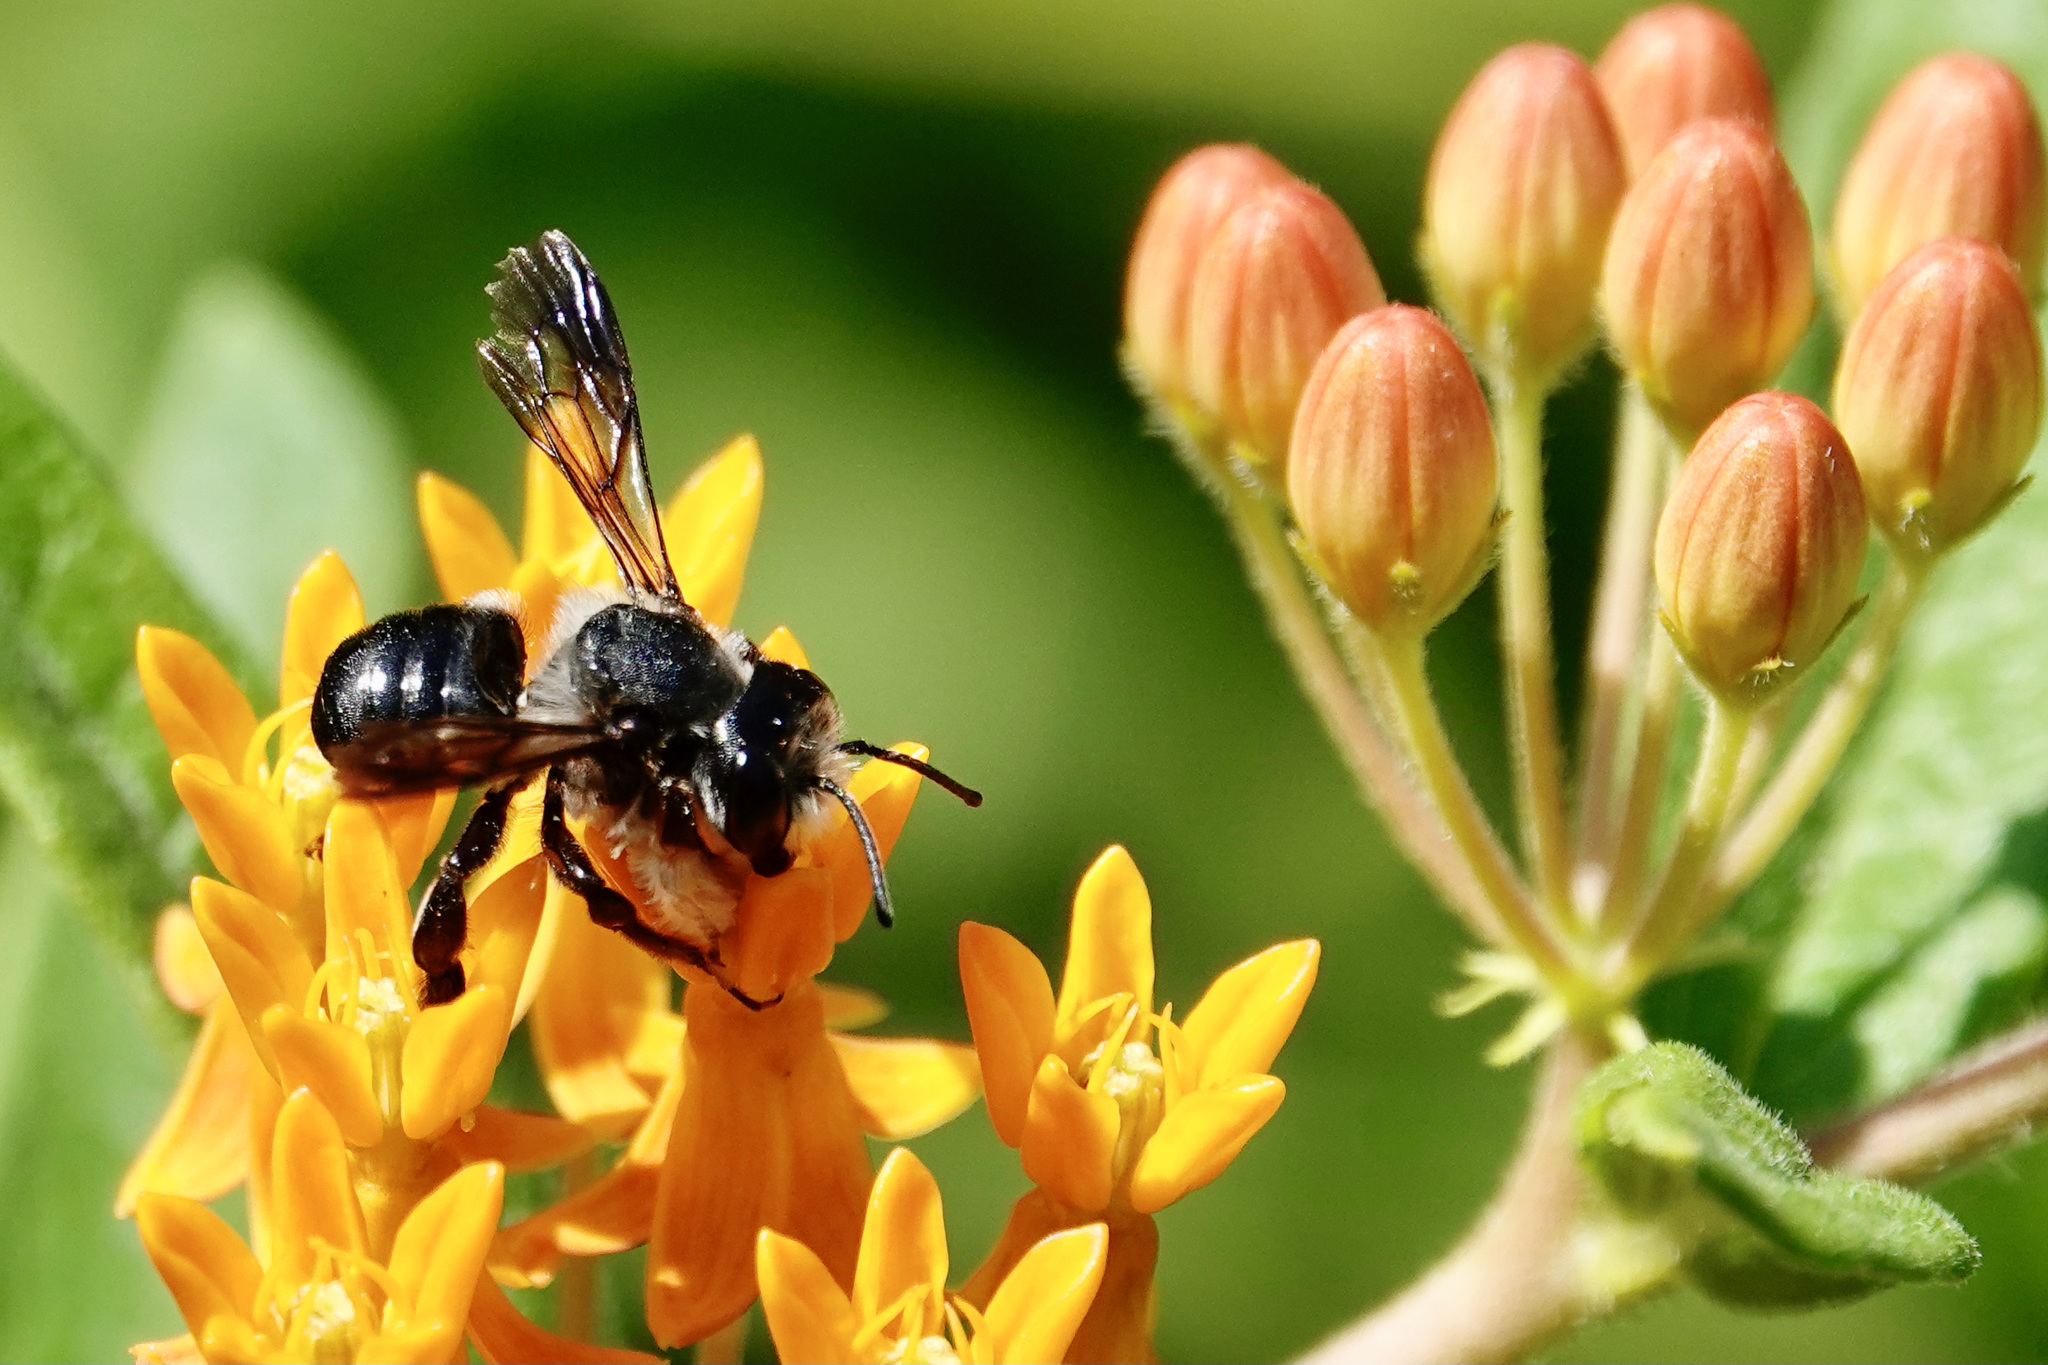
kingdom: Animalia
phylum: Arthropoda
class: Insecta
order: Hymenoptera
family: Megachilidae
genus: Megachile
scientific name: Megachile xylocopoides
